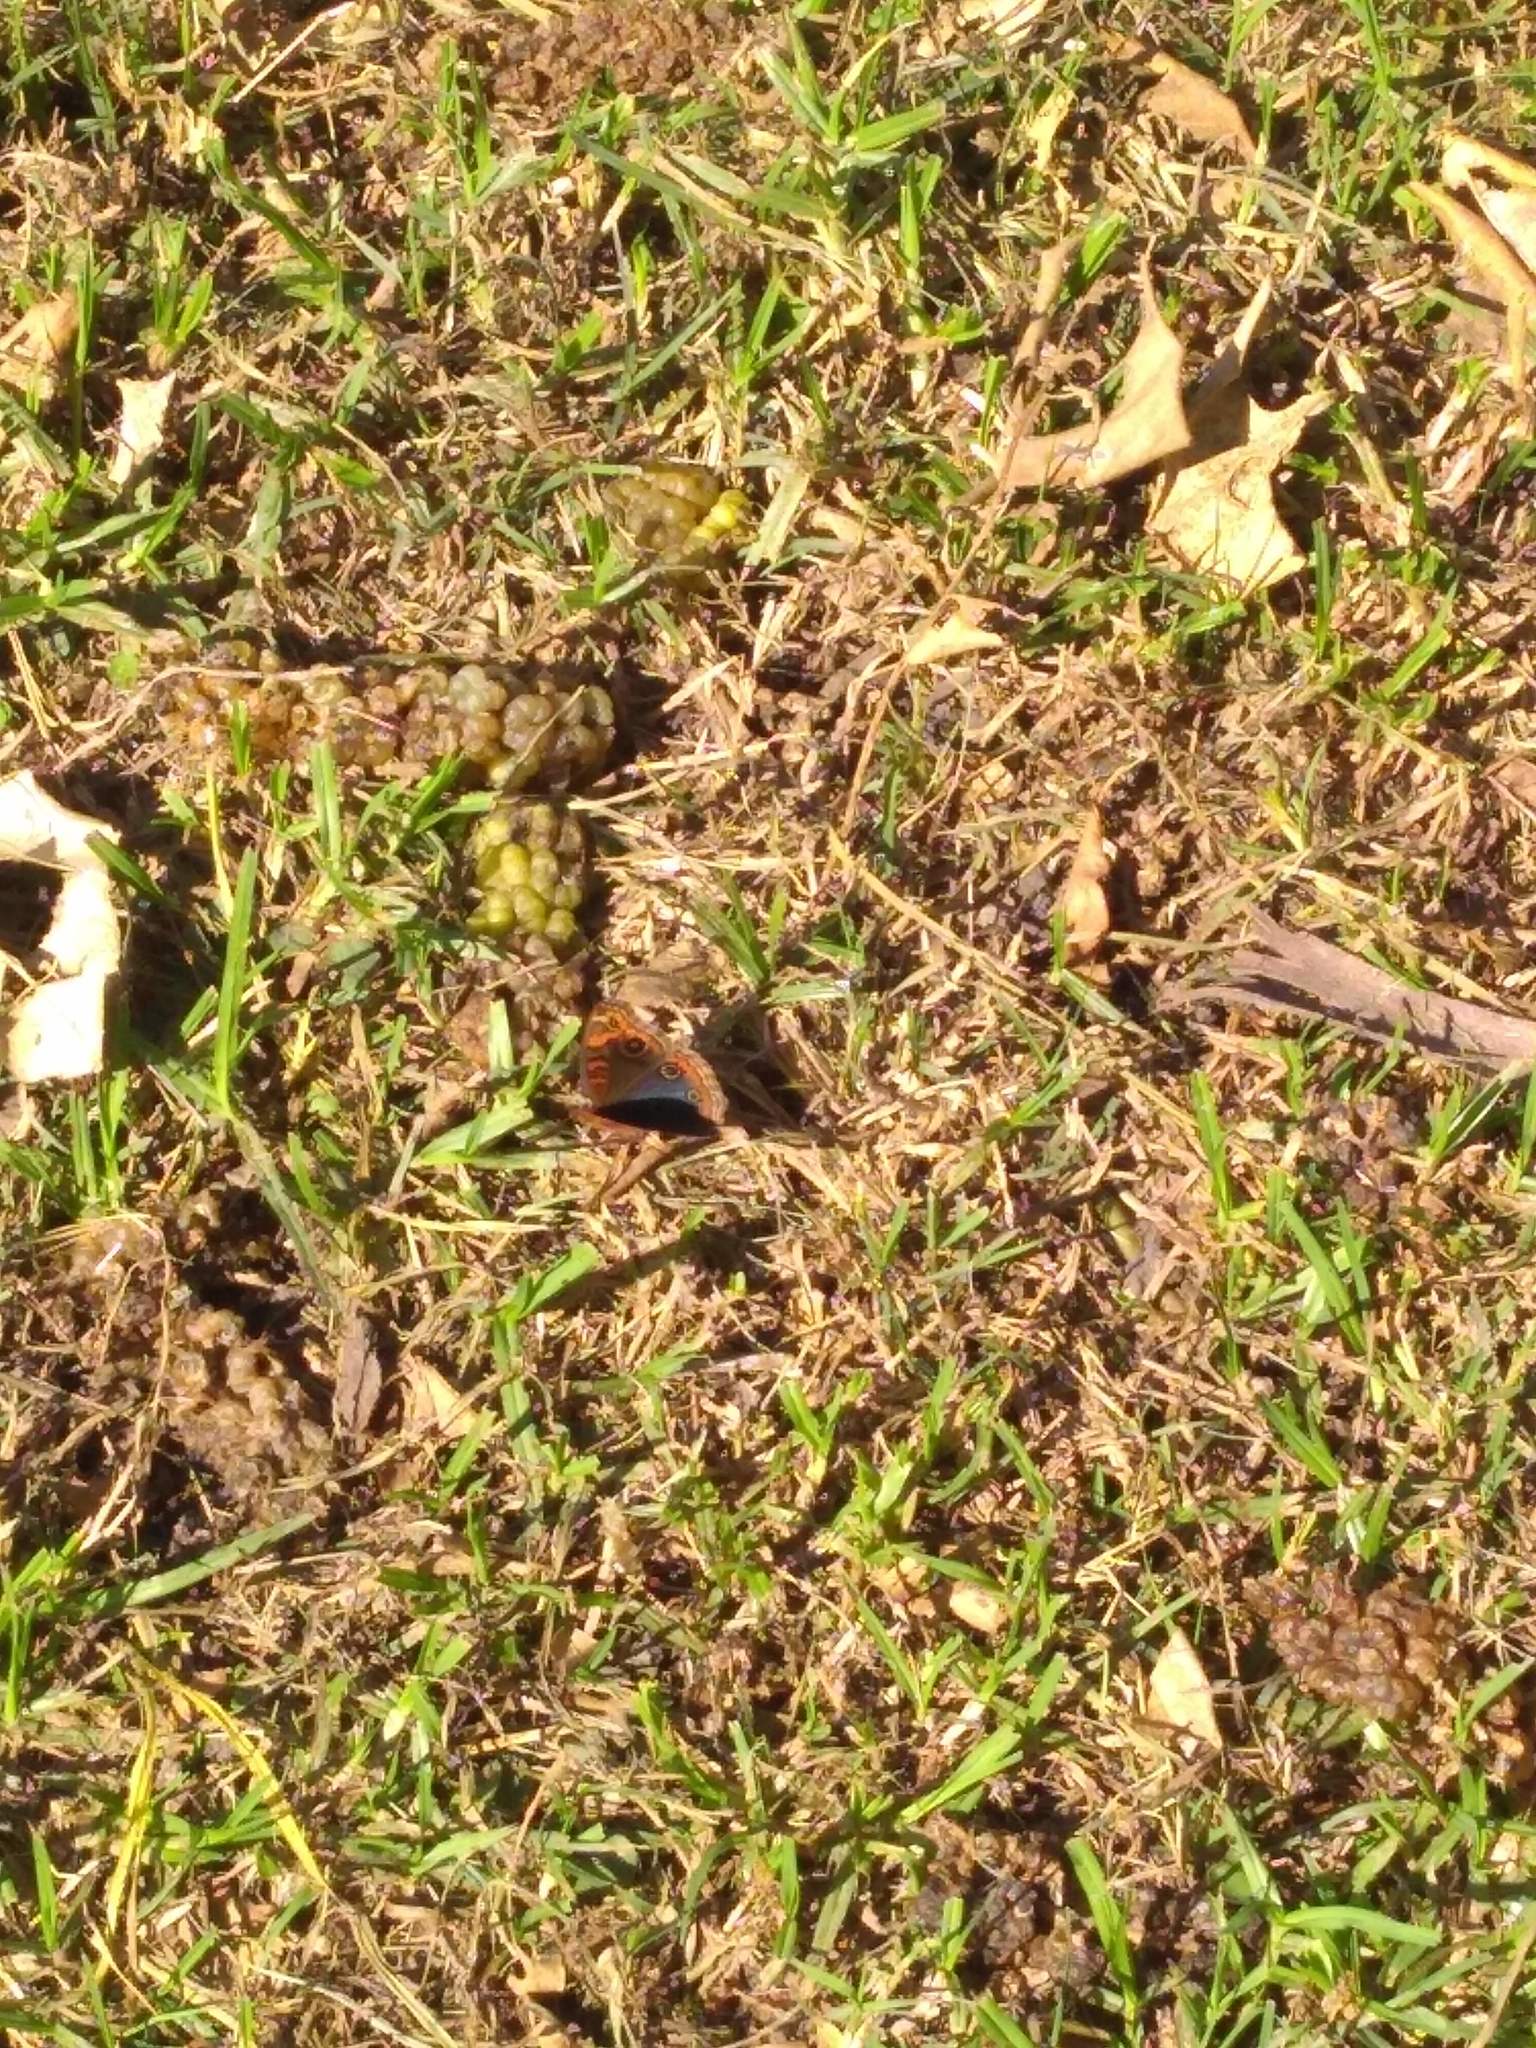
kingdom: Animalia
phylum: Arthropoda
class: Insecta
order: Lepidoptera
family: Nymphalidae
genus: Junonia
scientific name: Junonia lavinia
